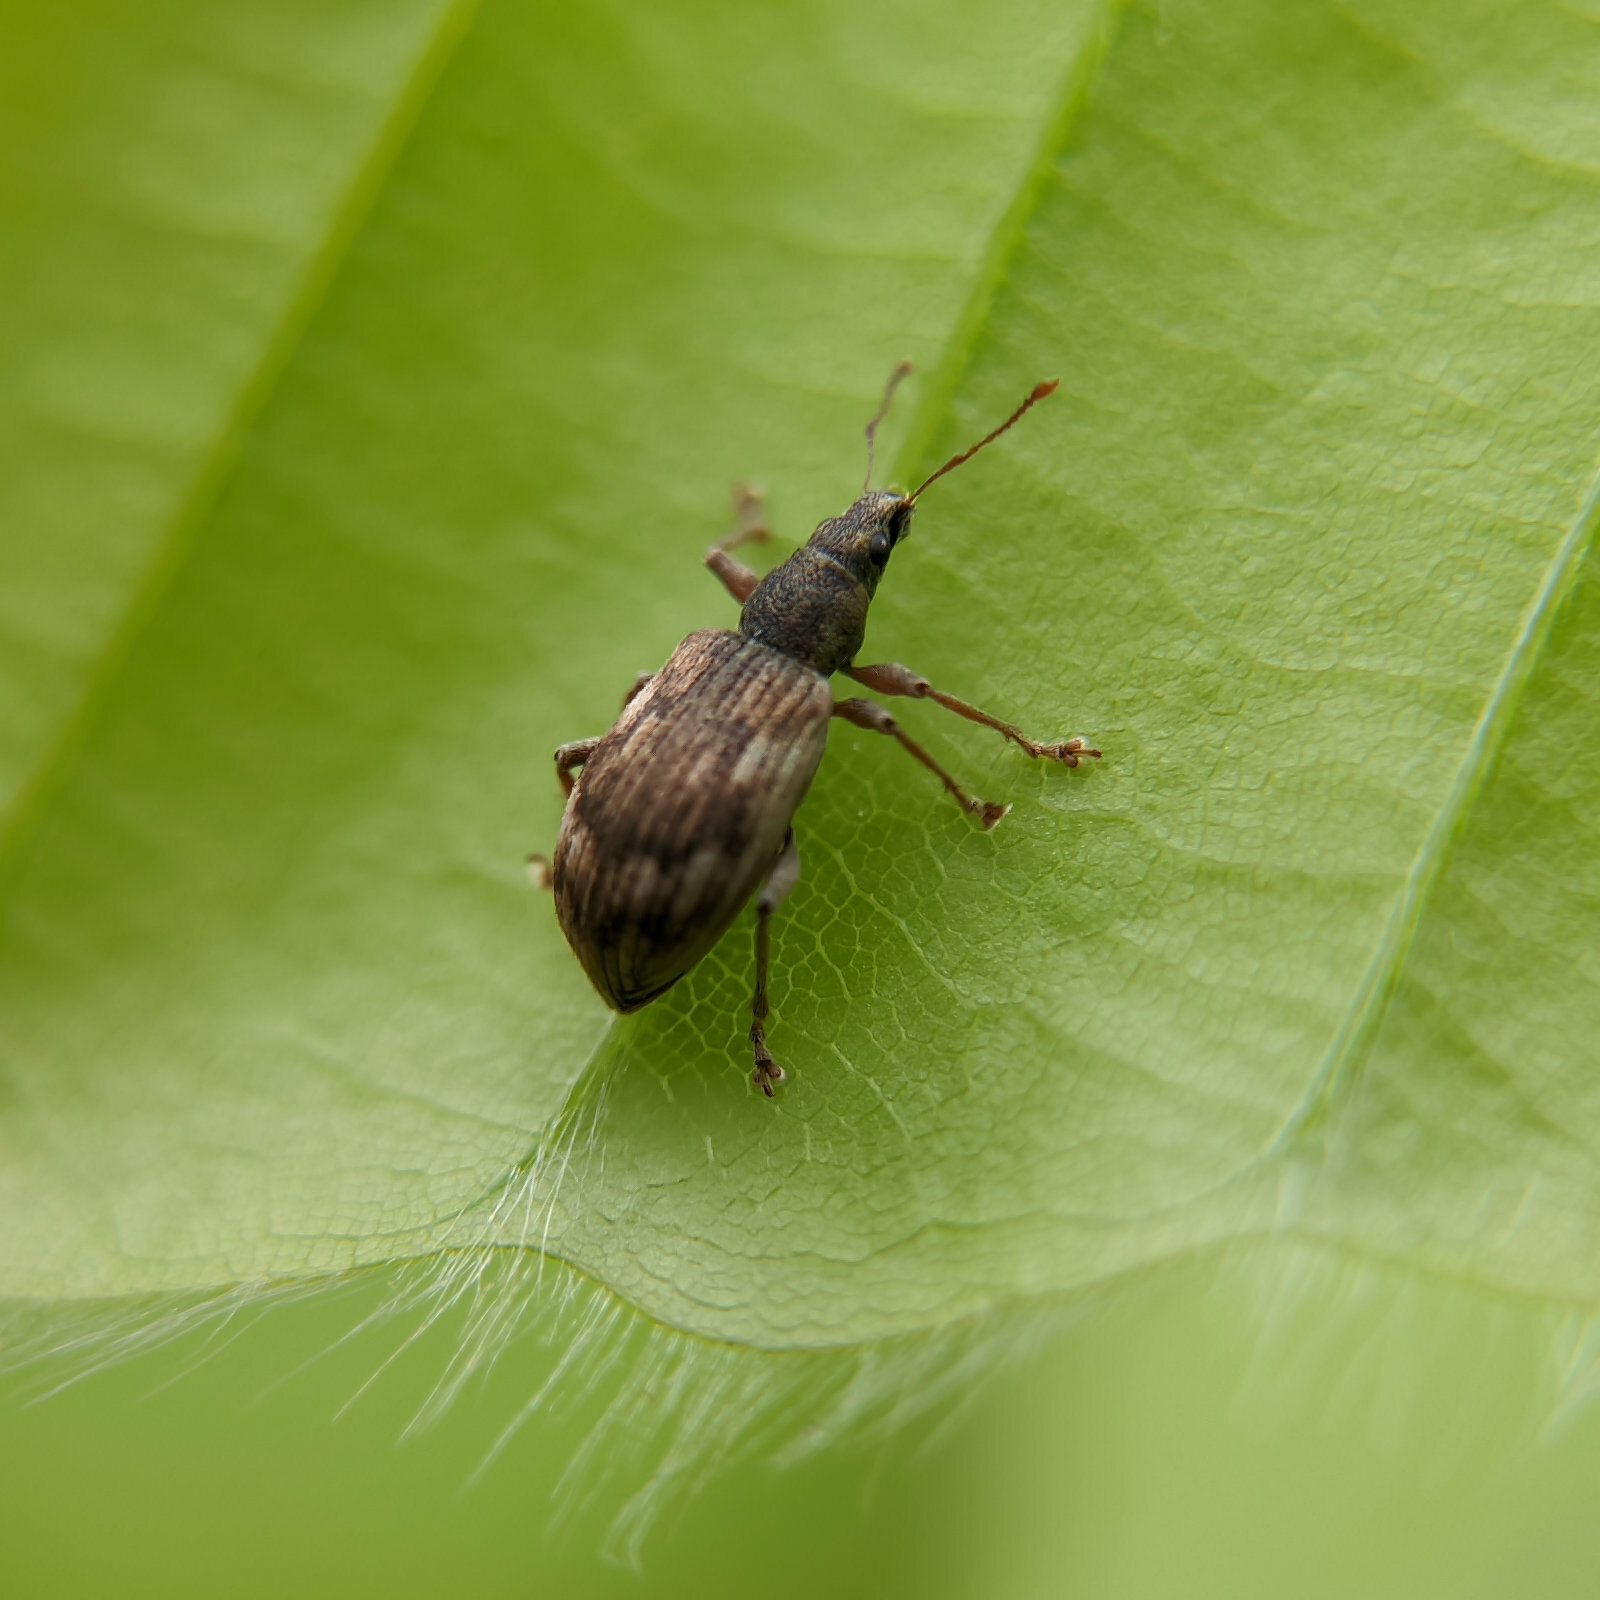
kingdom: Animalia
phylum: Arthropoda
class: Insecta
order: Coleoptera
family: Curculionidae
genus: Polydrusus
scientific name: Polydrusus tereticollis
